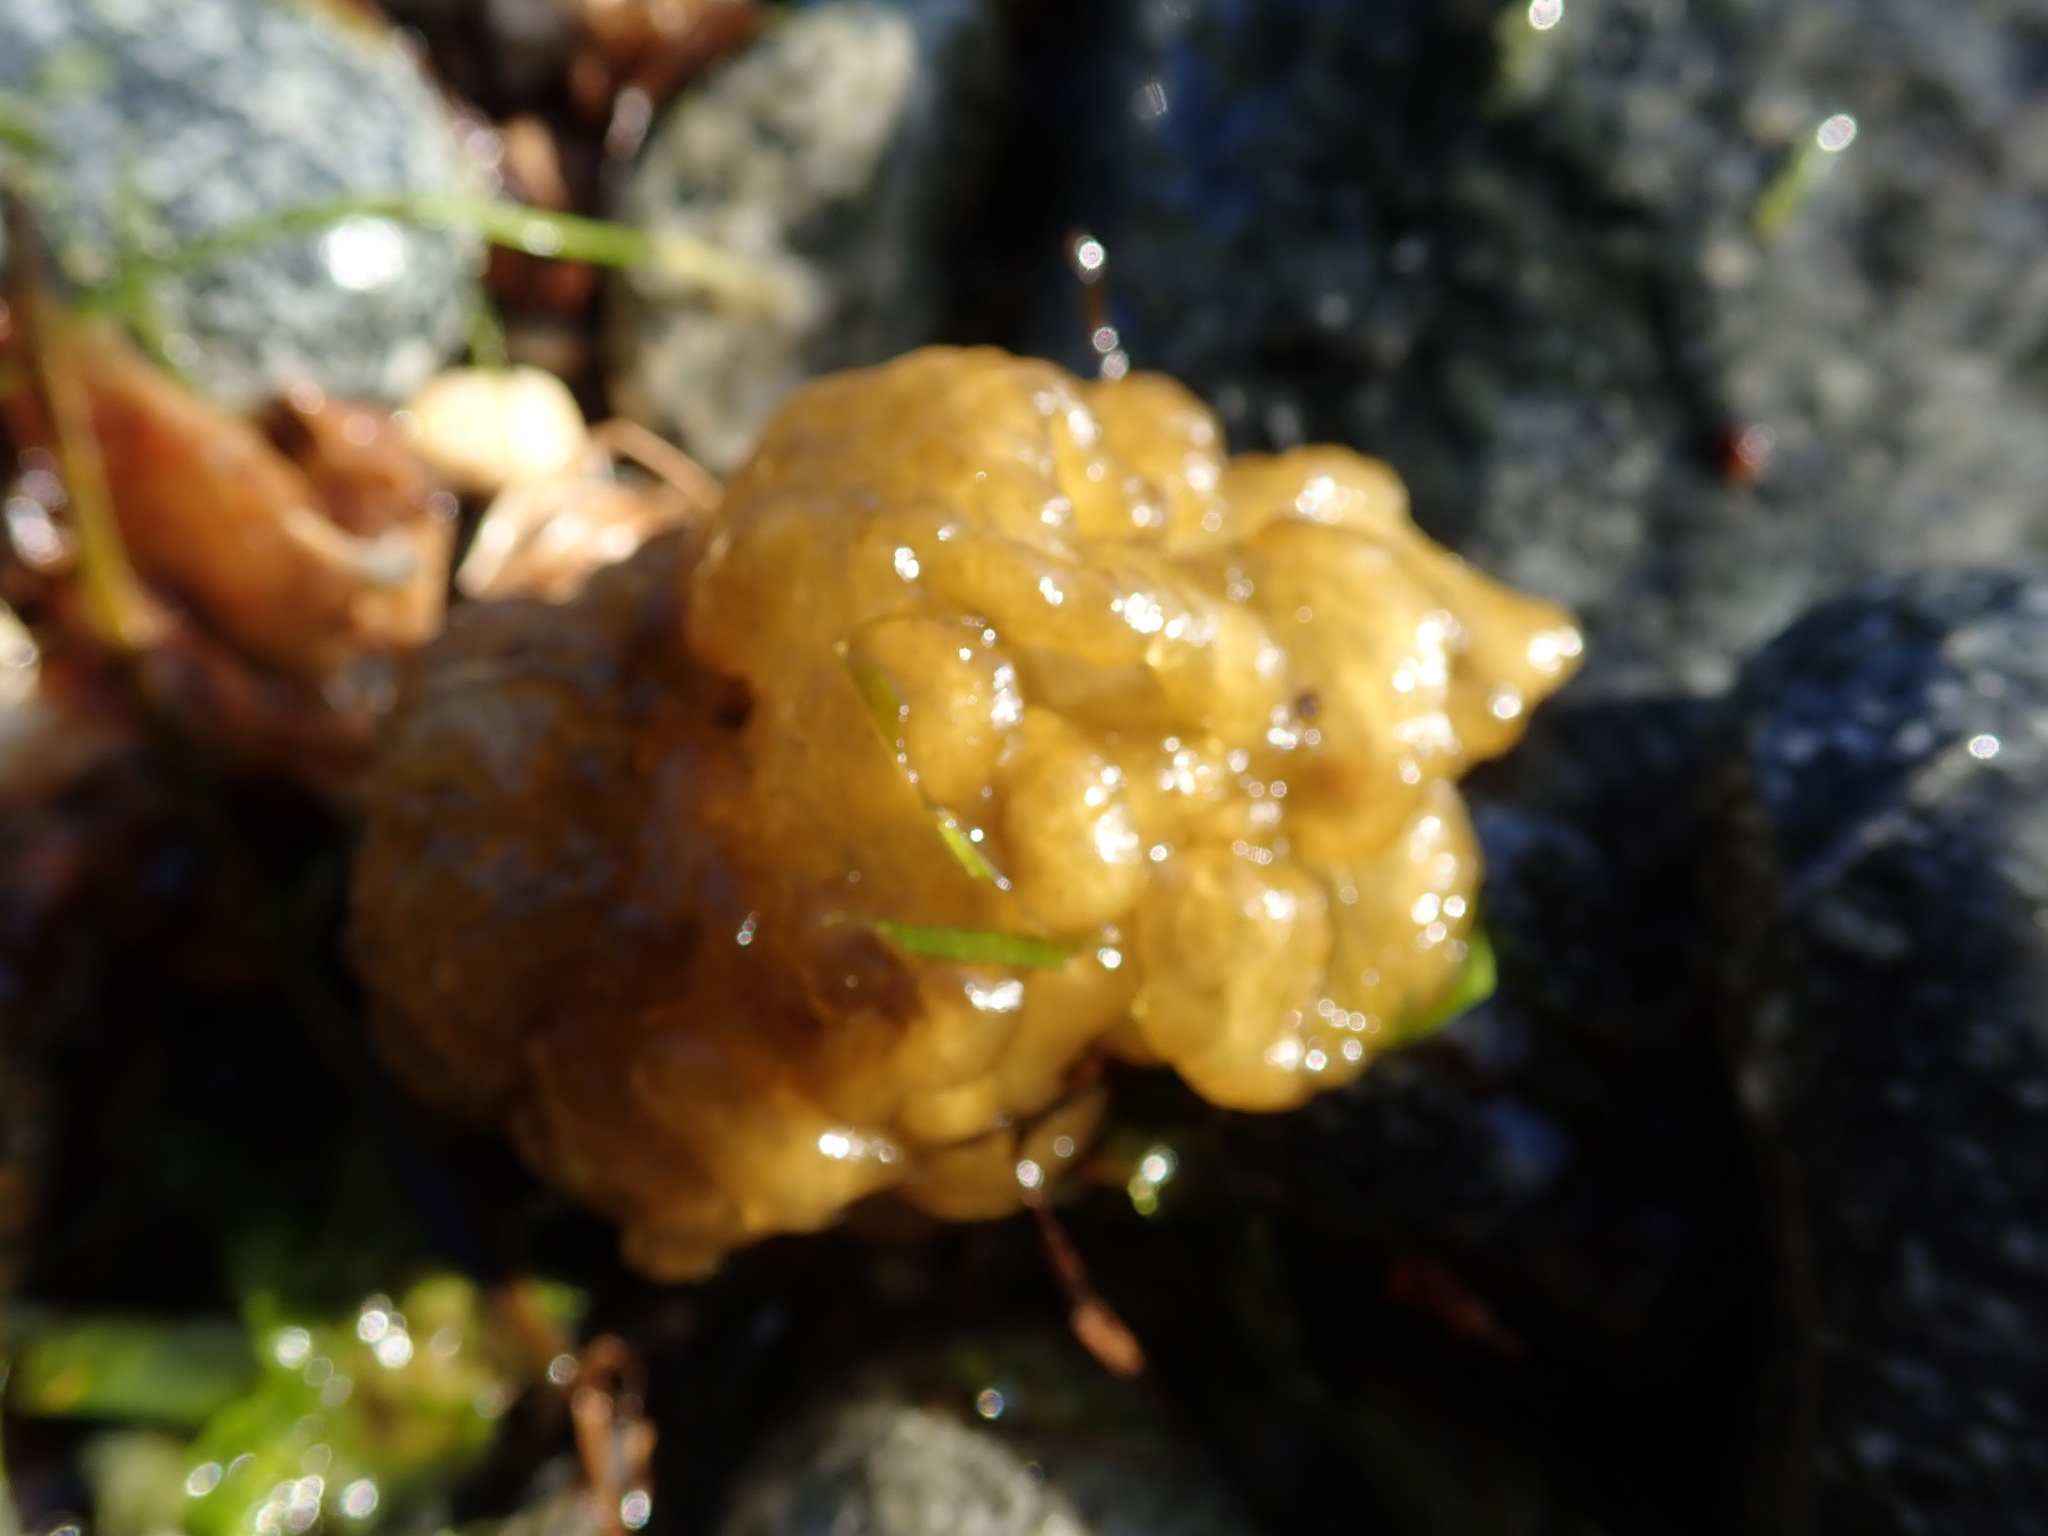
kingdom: Chromista
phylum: Ochrophyta
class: Phaeophyceae
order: Ectocarpales
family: Chordariaceae
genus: Leathesia
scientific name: Leathesia marina
